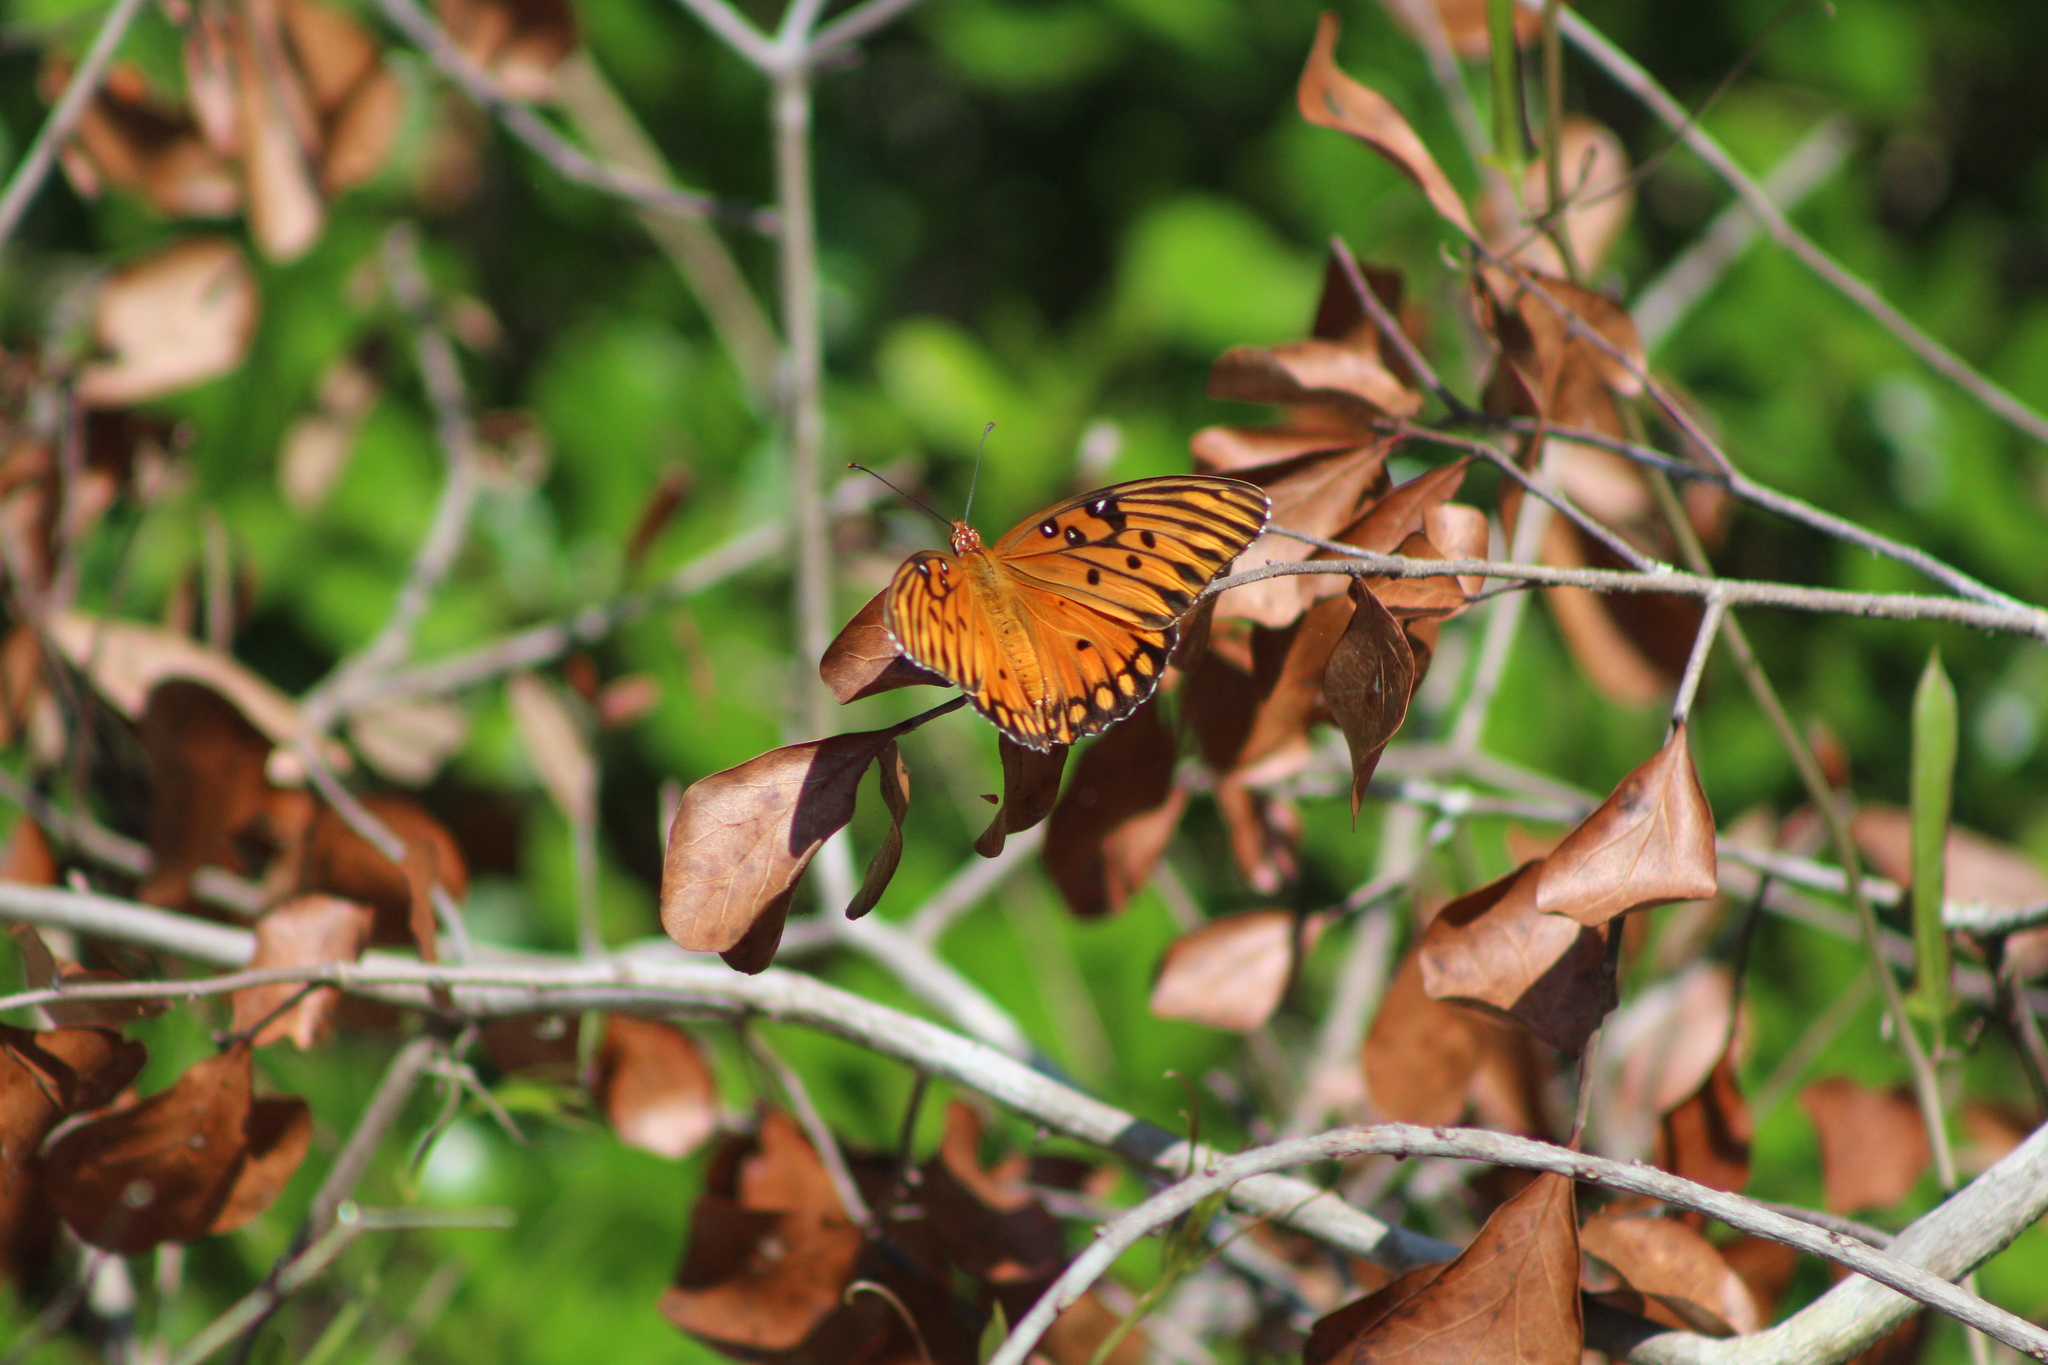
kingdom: Animalia
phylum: Arthropoda
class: Insecta
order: Lepidoptera
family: Nymphalidae
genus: Dione
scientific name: Dione vanillae
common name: Gulf fritillary
